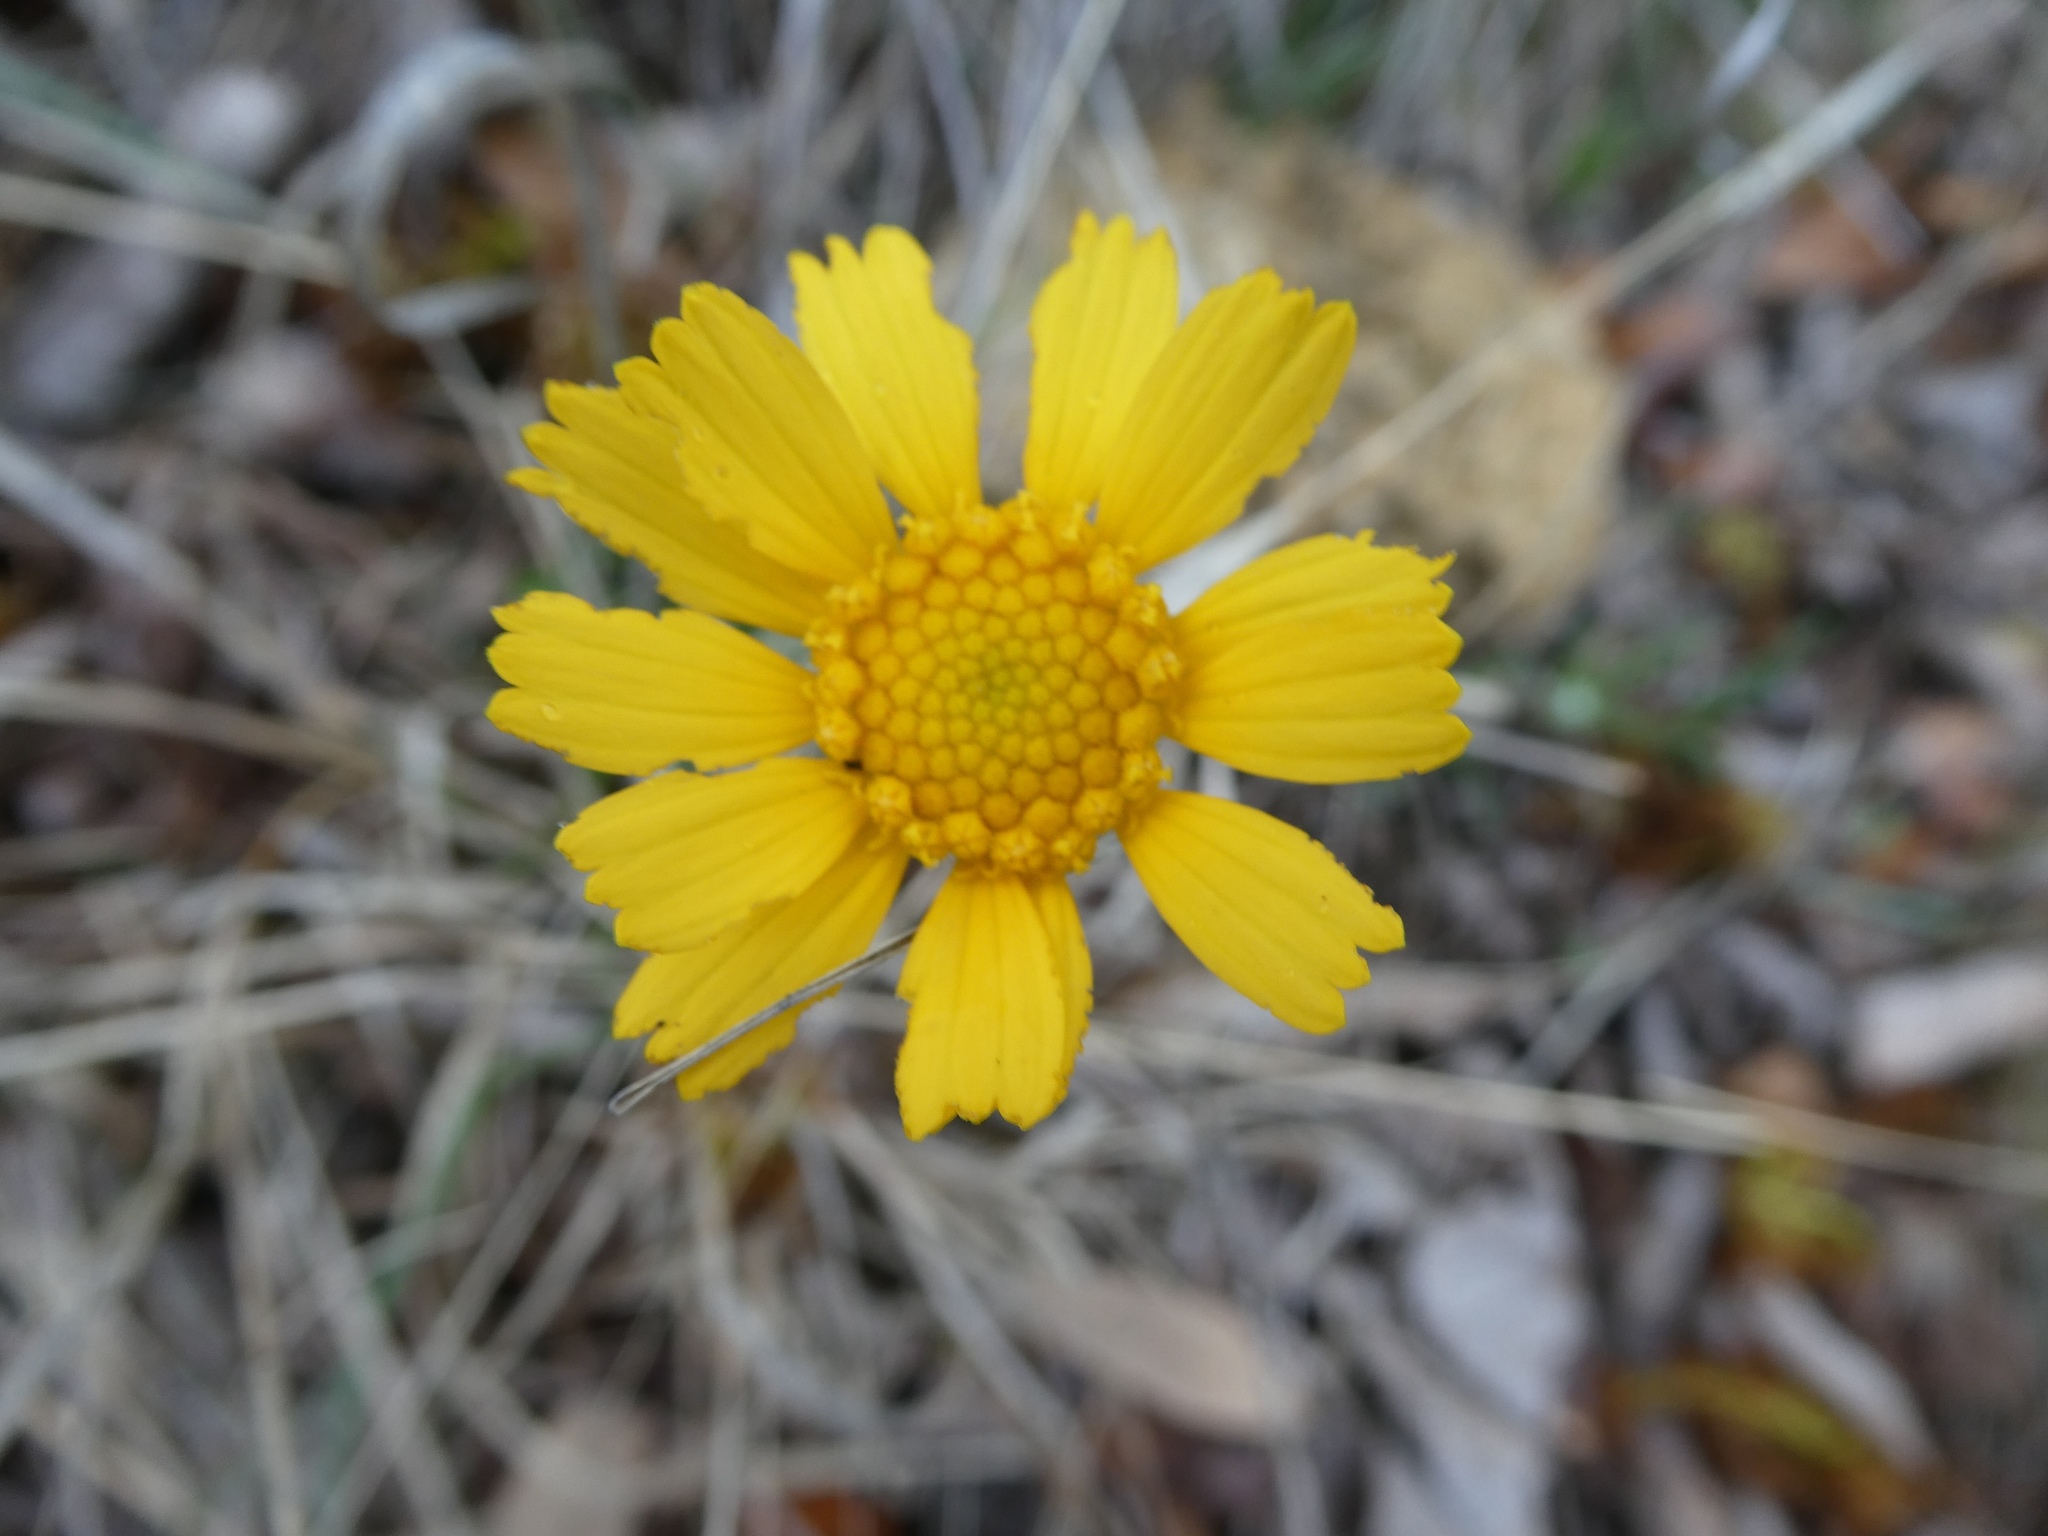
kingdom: Plantae
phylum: Tracheophyta
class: Magnoliopsida
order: Asterales
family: Asteraceae
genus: Tetraneuris
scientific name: Tetraneuris scaposa
